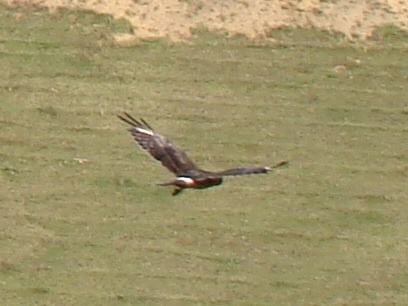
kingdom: Animalia
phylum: Chordata
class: Aves
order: Accipitriformes
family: Accipitridae
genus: Circus
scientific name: Circus approximans
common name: Swamp harrier
